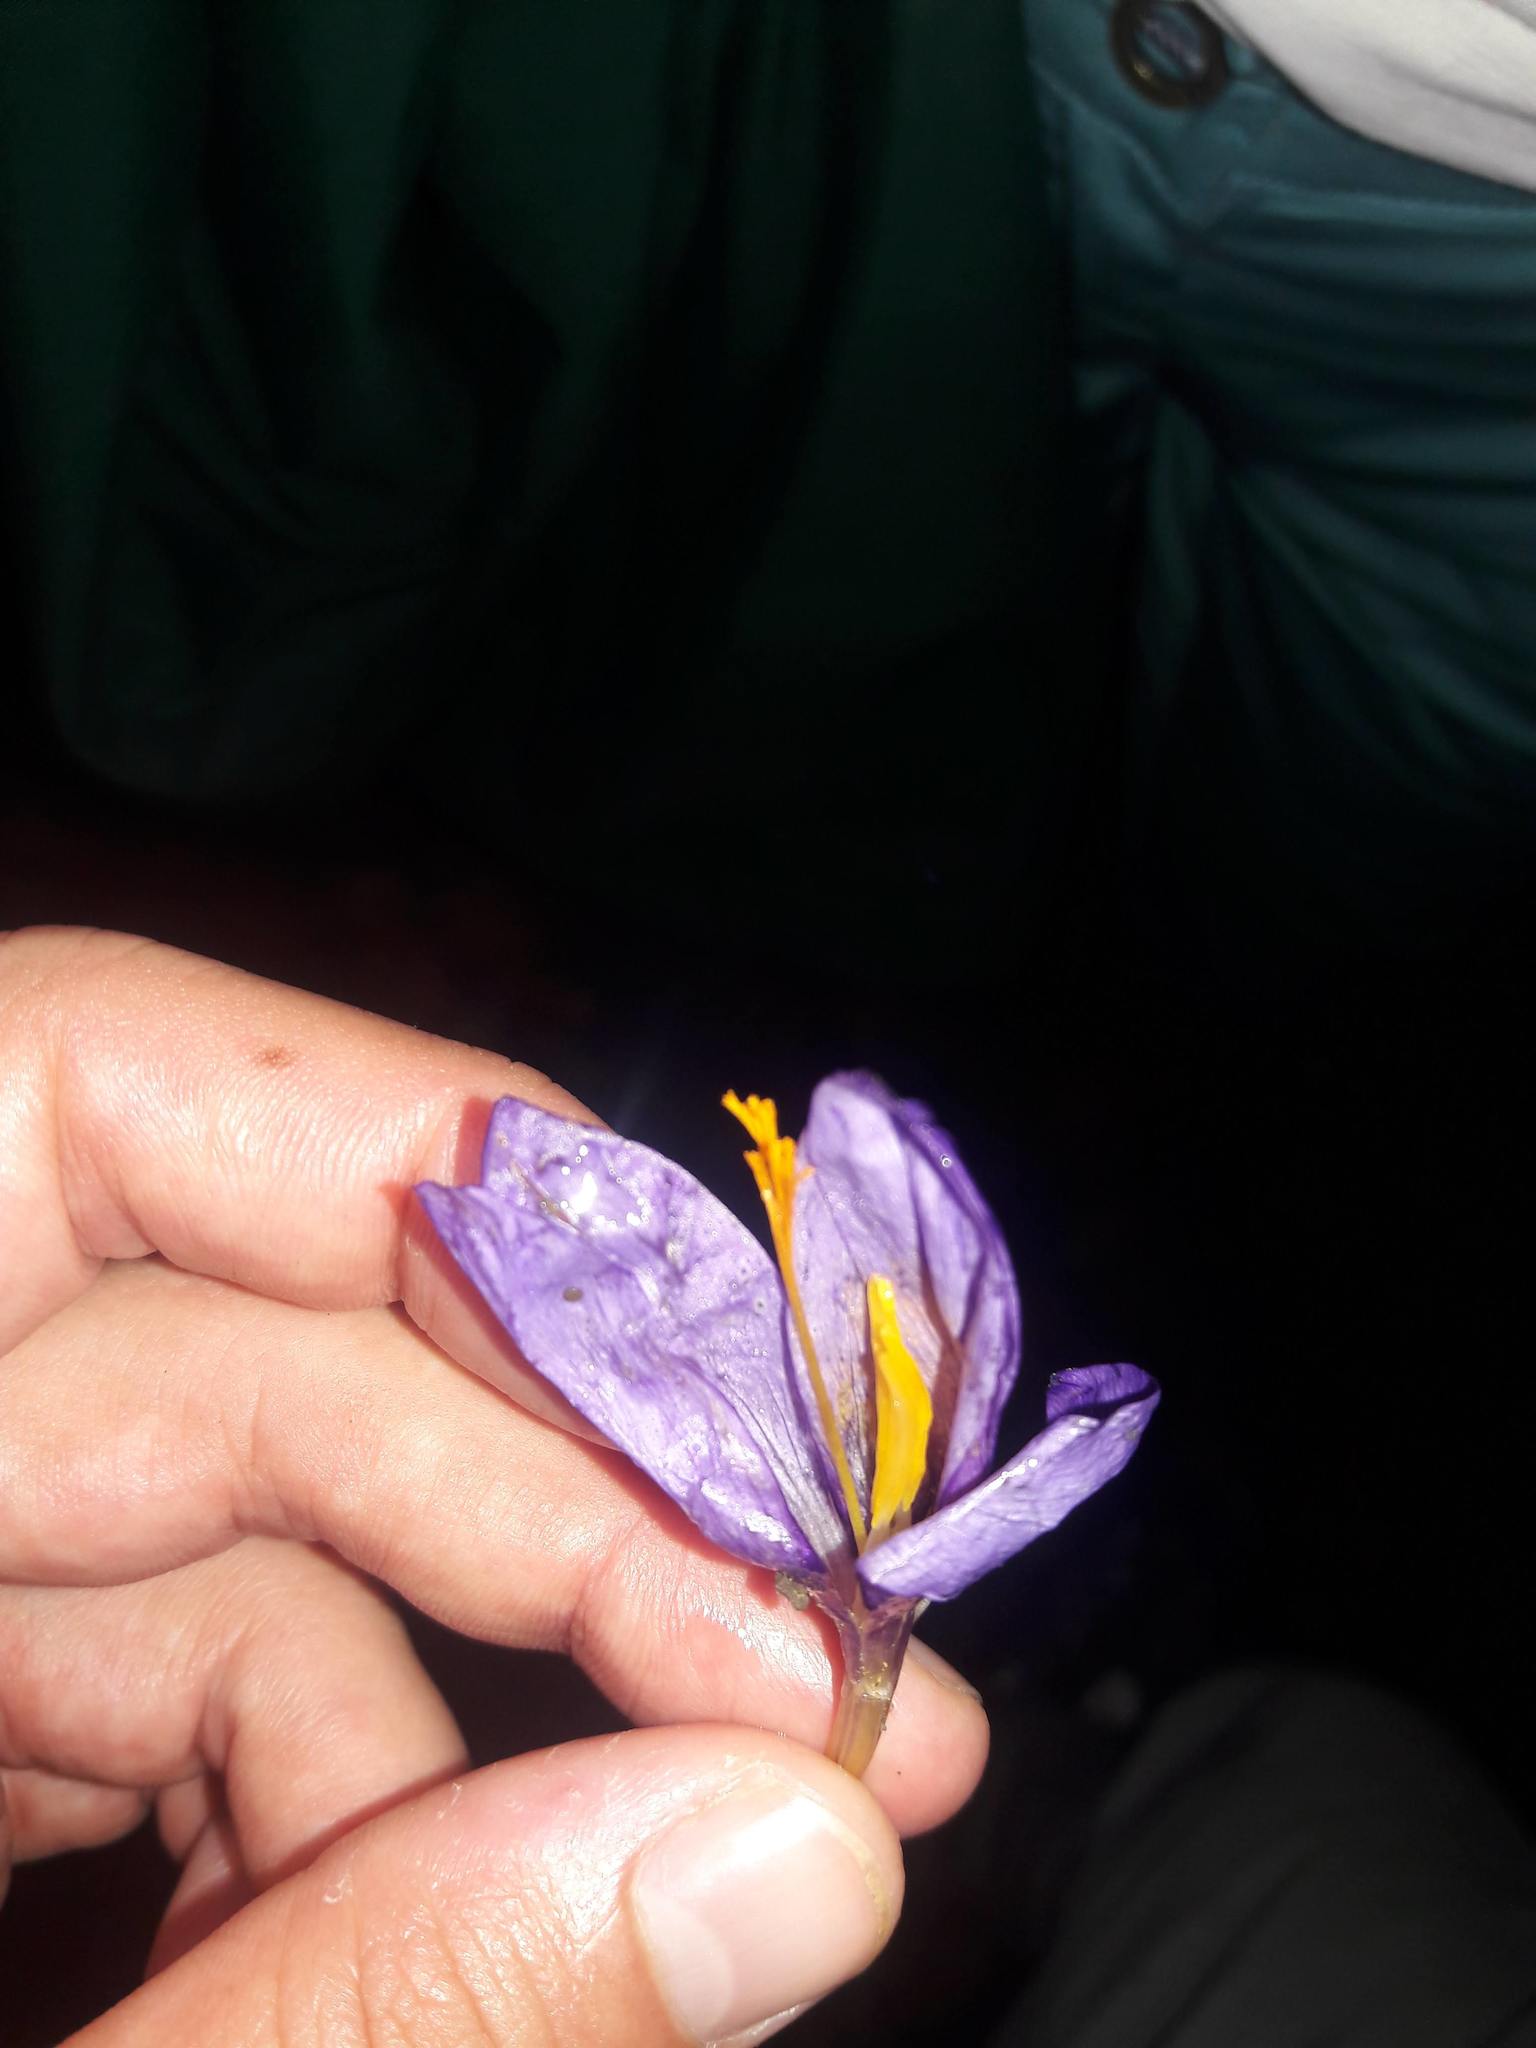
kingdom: Plantae
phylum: Tracheophyta
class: Liliopsida
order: Asparagales
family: Iridaceae
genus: Crocus
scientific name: Crocus nudiflorus
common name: Autumn crocus
